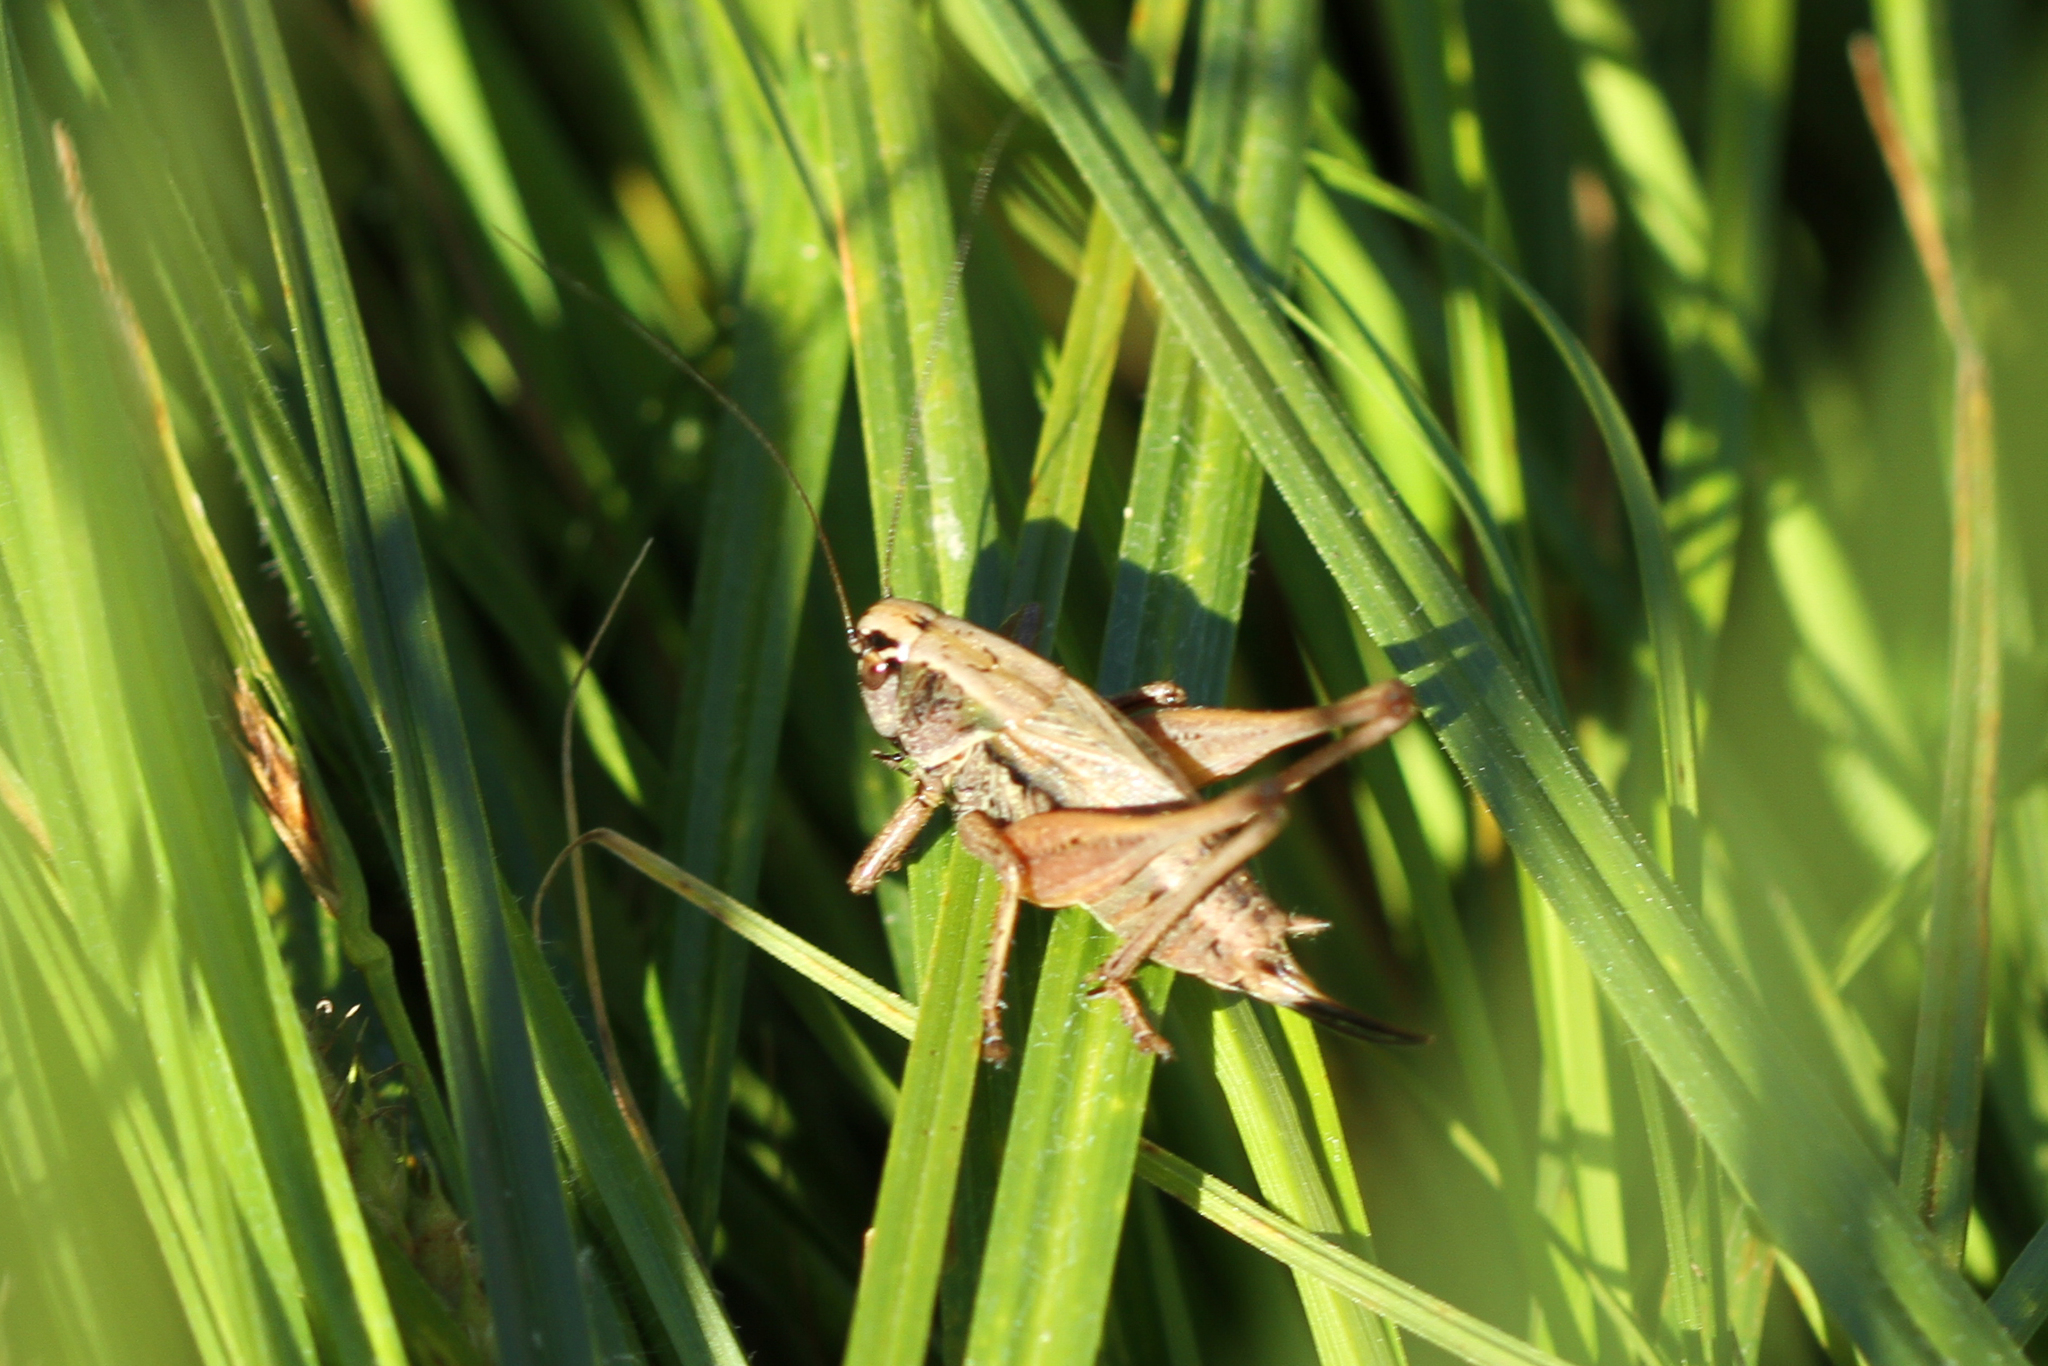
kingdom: Animalia
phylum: Arthropoda
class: Insecta
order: Orthoptera
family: Tettigoniidae
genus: Metrioptera
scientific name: Metrioptera saussuriana
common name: Purple meadow bush-cricket
